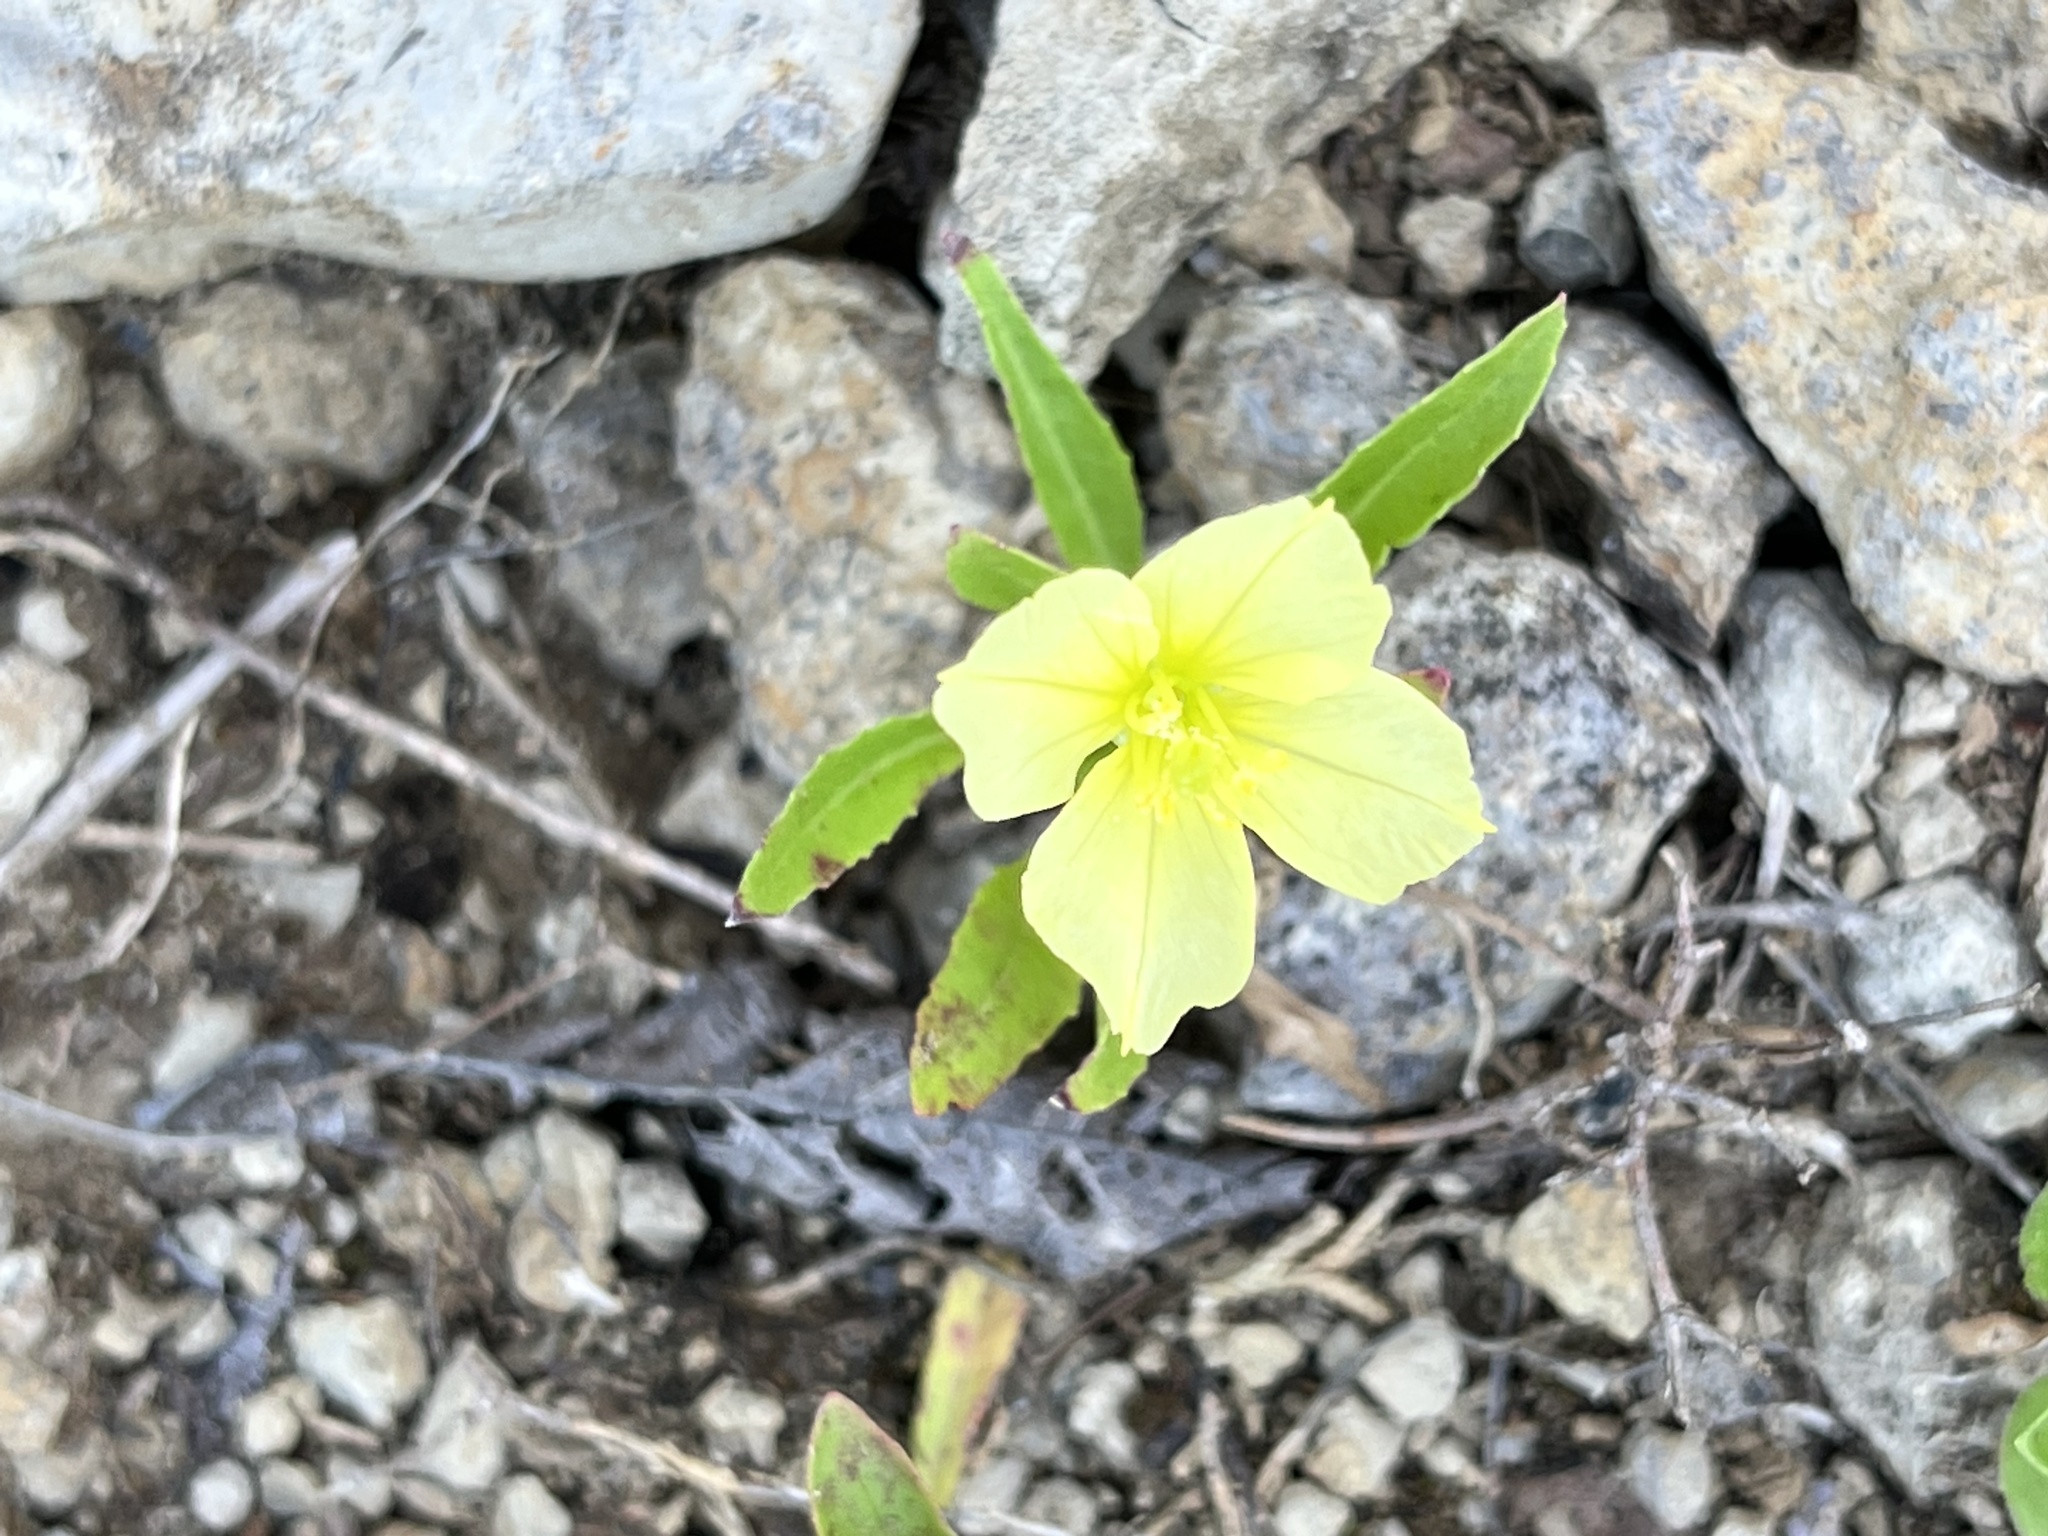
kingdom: Plantae
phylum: Tracheophyta
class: Magnoliopsida
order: Myrtales
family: Onagraceae
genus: Oenothera
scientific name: Oenothera triloba
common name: Sessile evening-primrose
